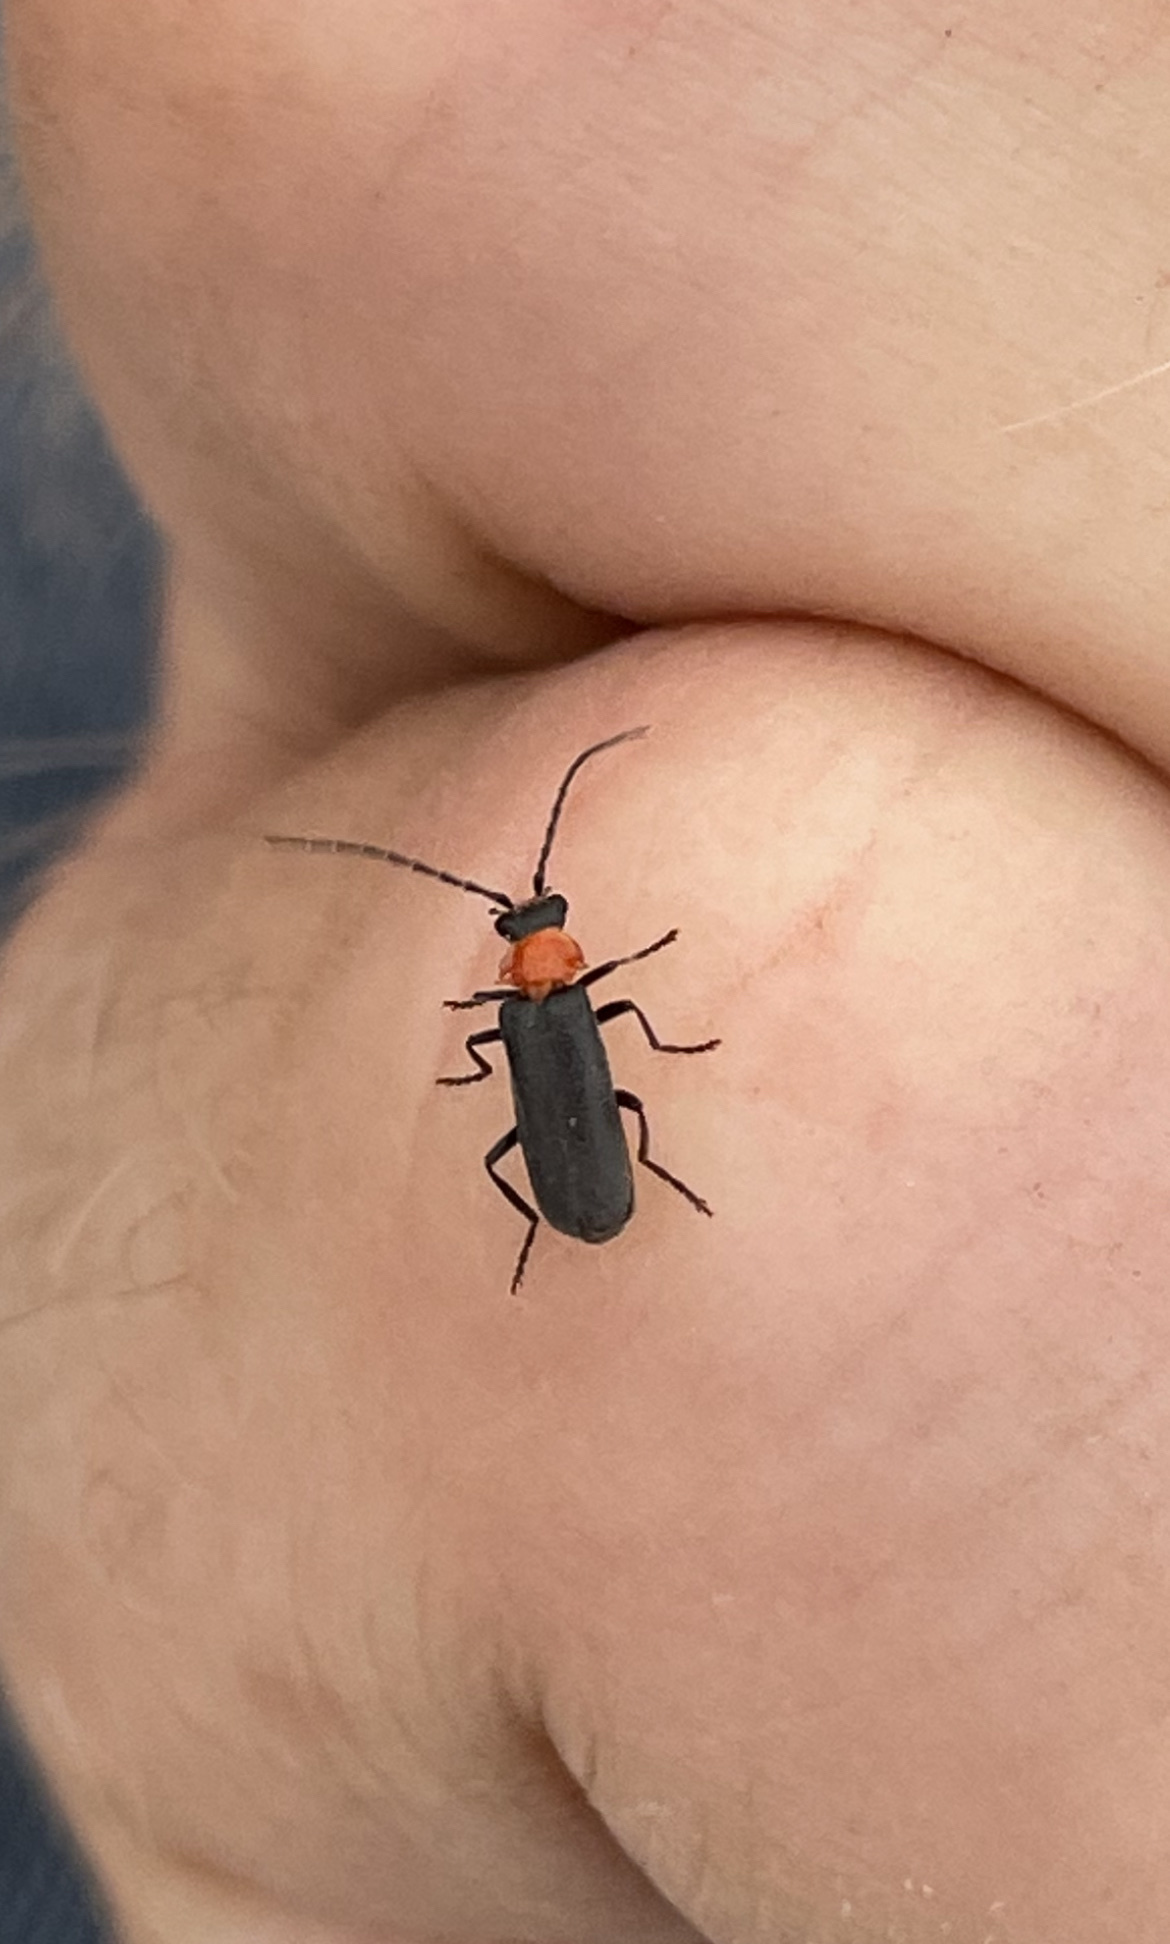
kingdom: Animalia
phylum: Arthropoda
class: Insecta
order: Coleoptera
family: Cantharidae
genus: Ditemnus
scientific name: Ditemnus
